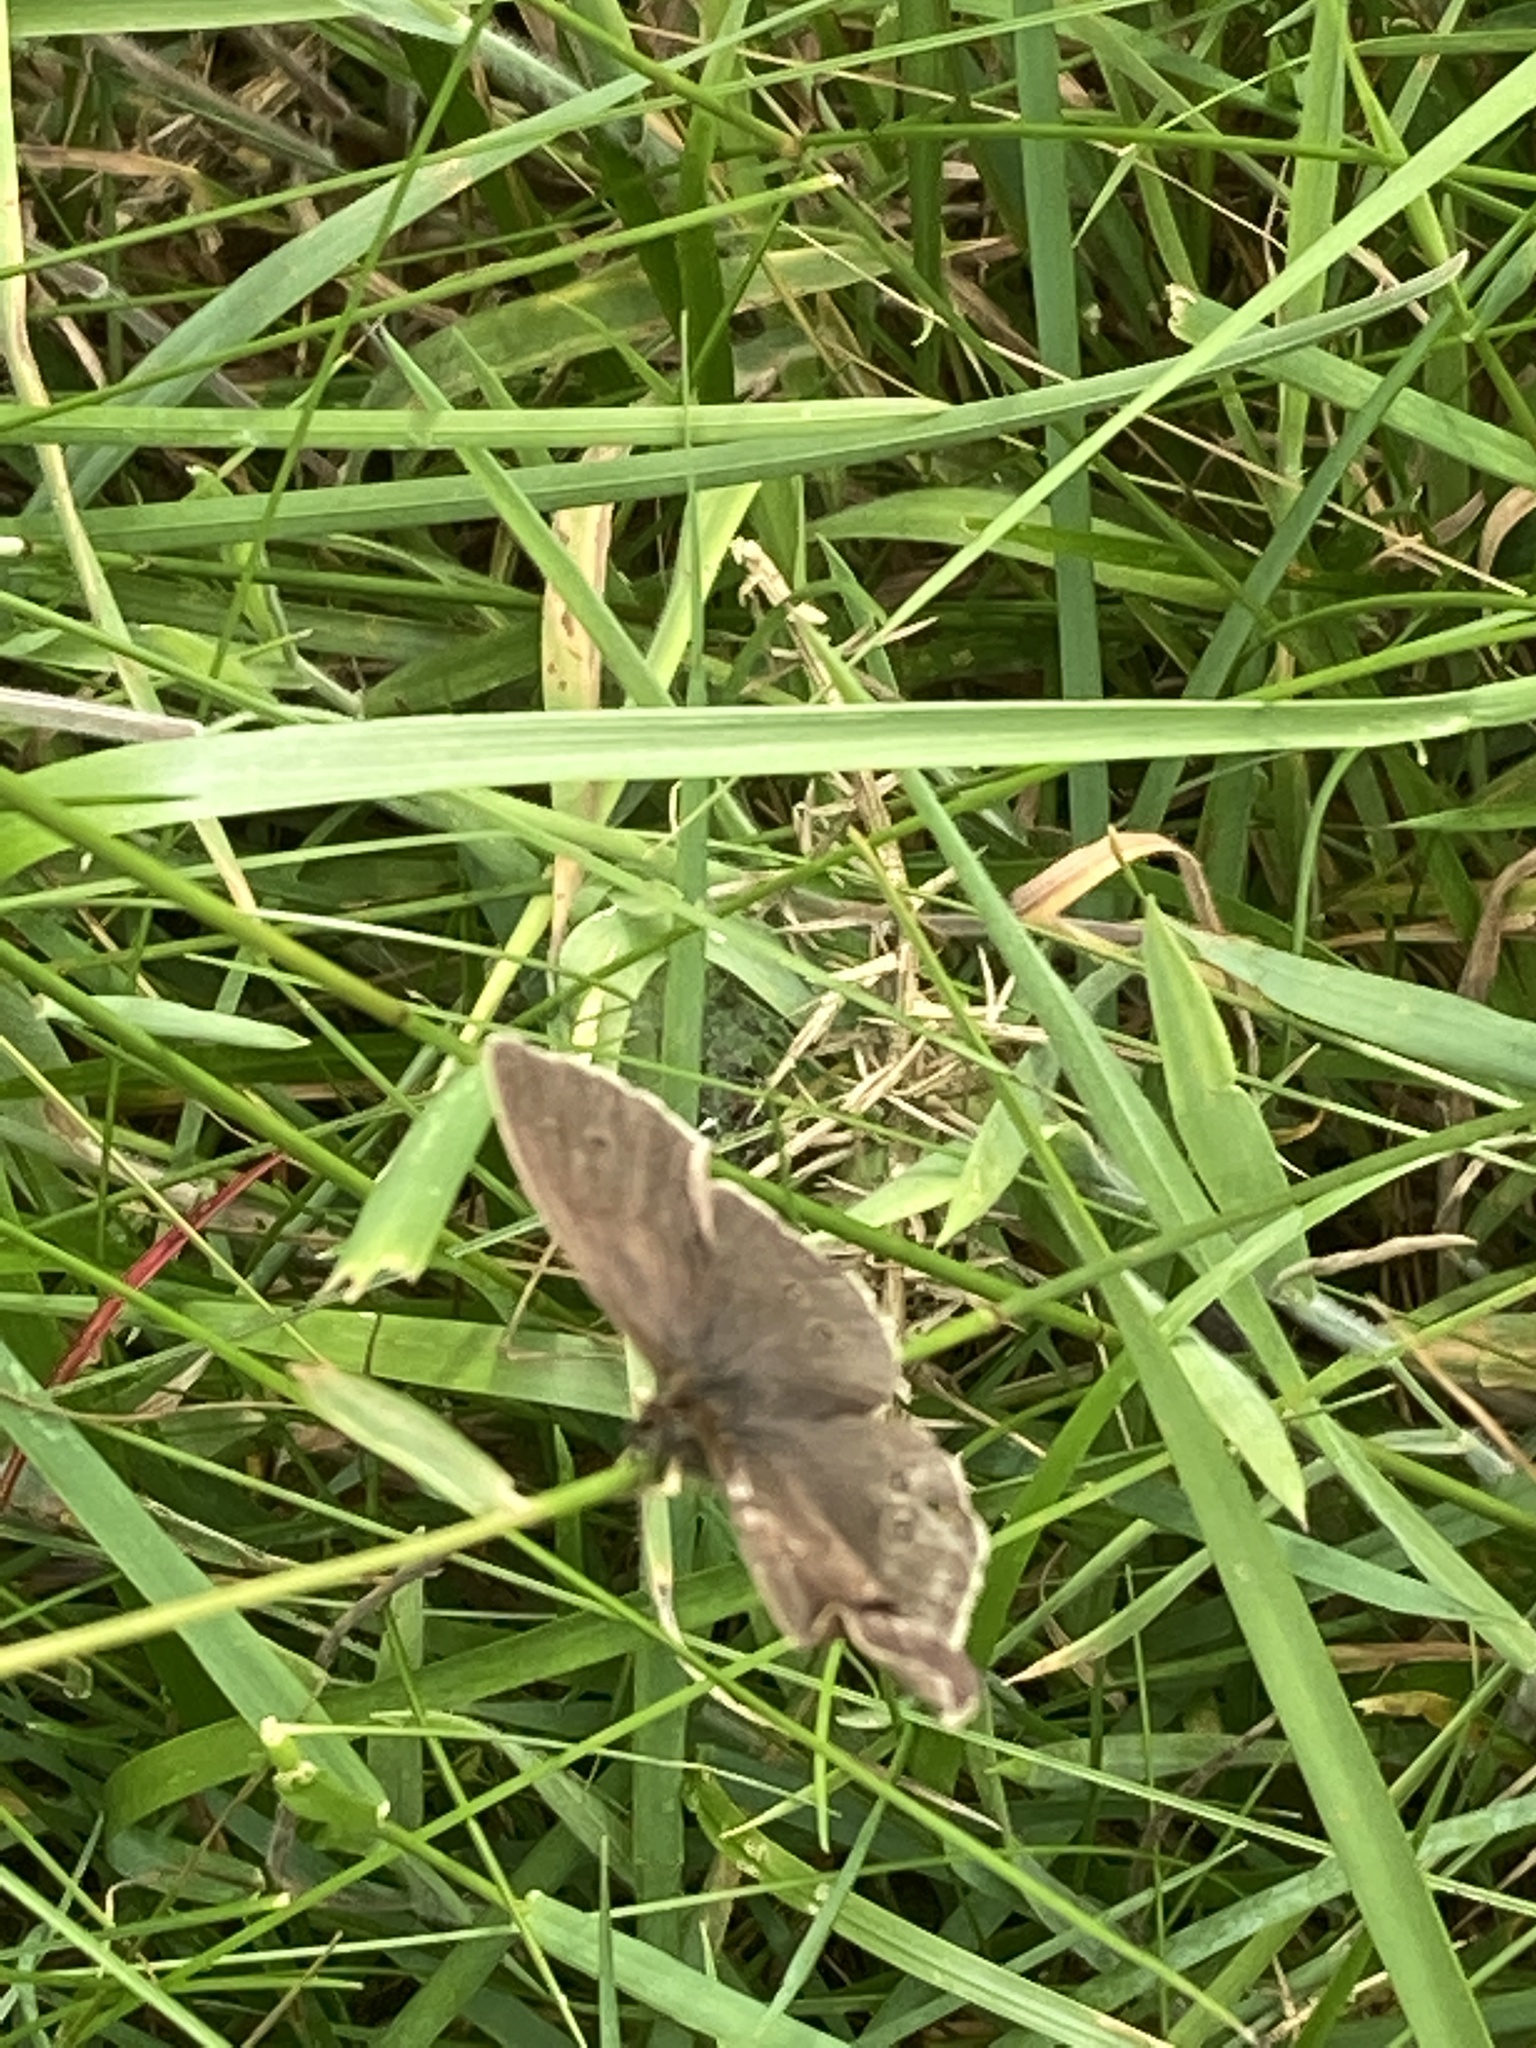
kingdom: Animalia
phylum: Arthropoda
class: Insecta
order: Lepidoptera
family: Nymphalidae
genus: Aphantopus
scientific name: Aphantopus hyperantus
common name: Ringlet
